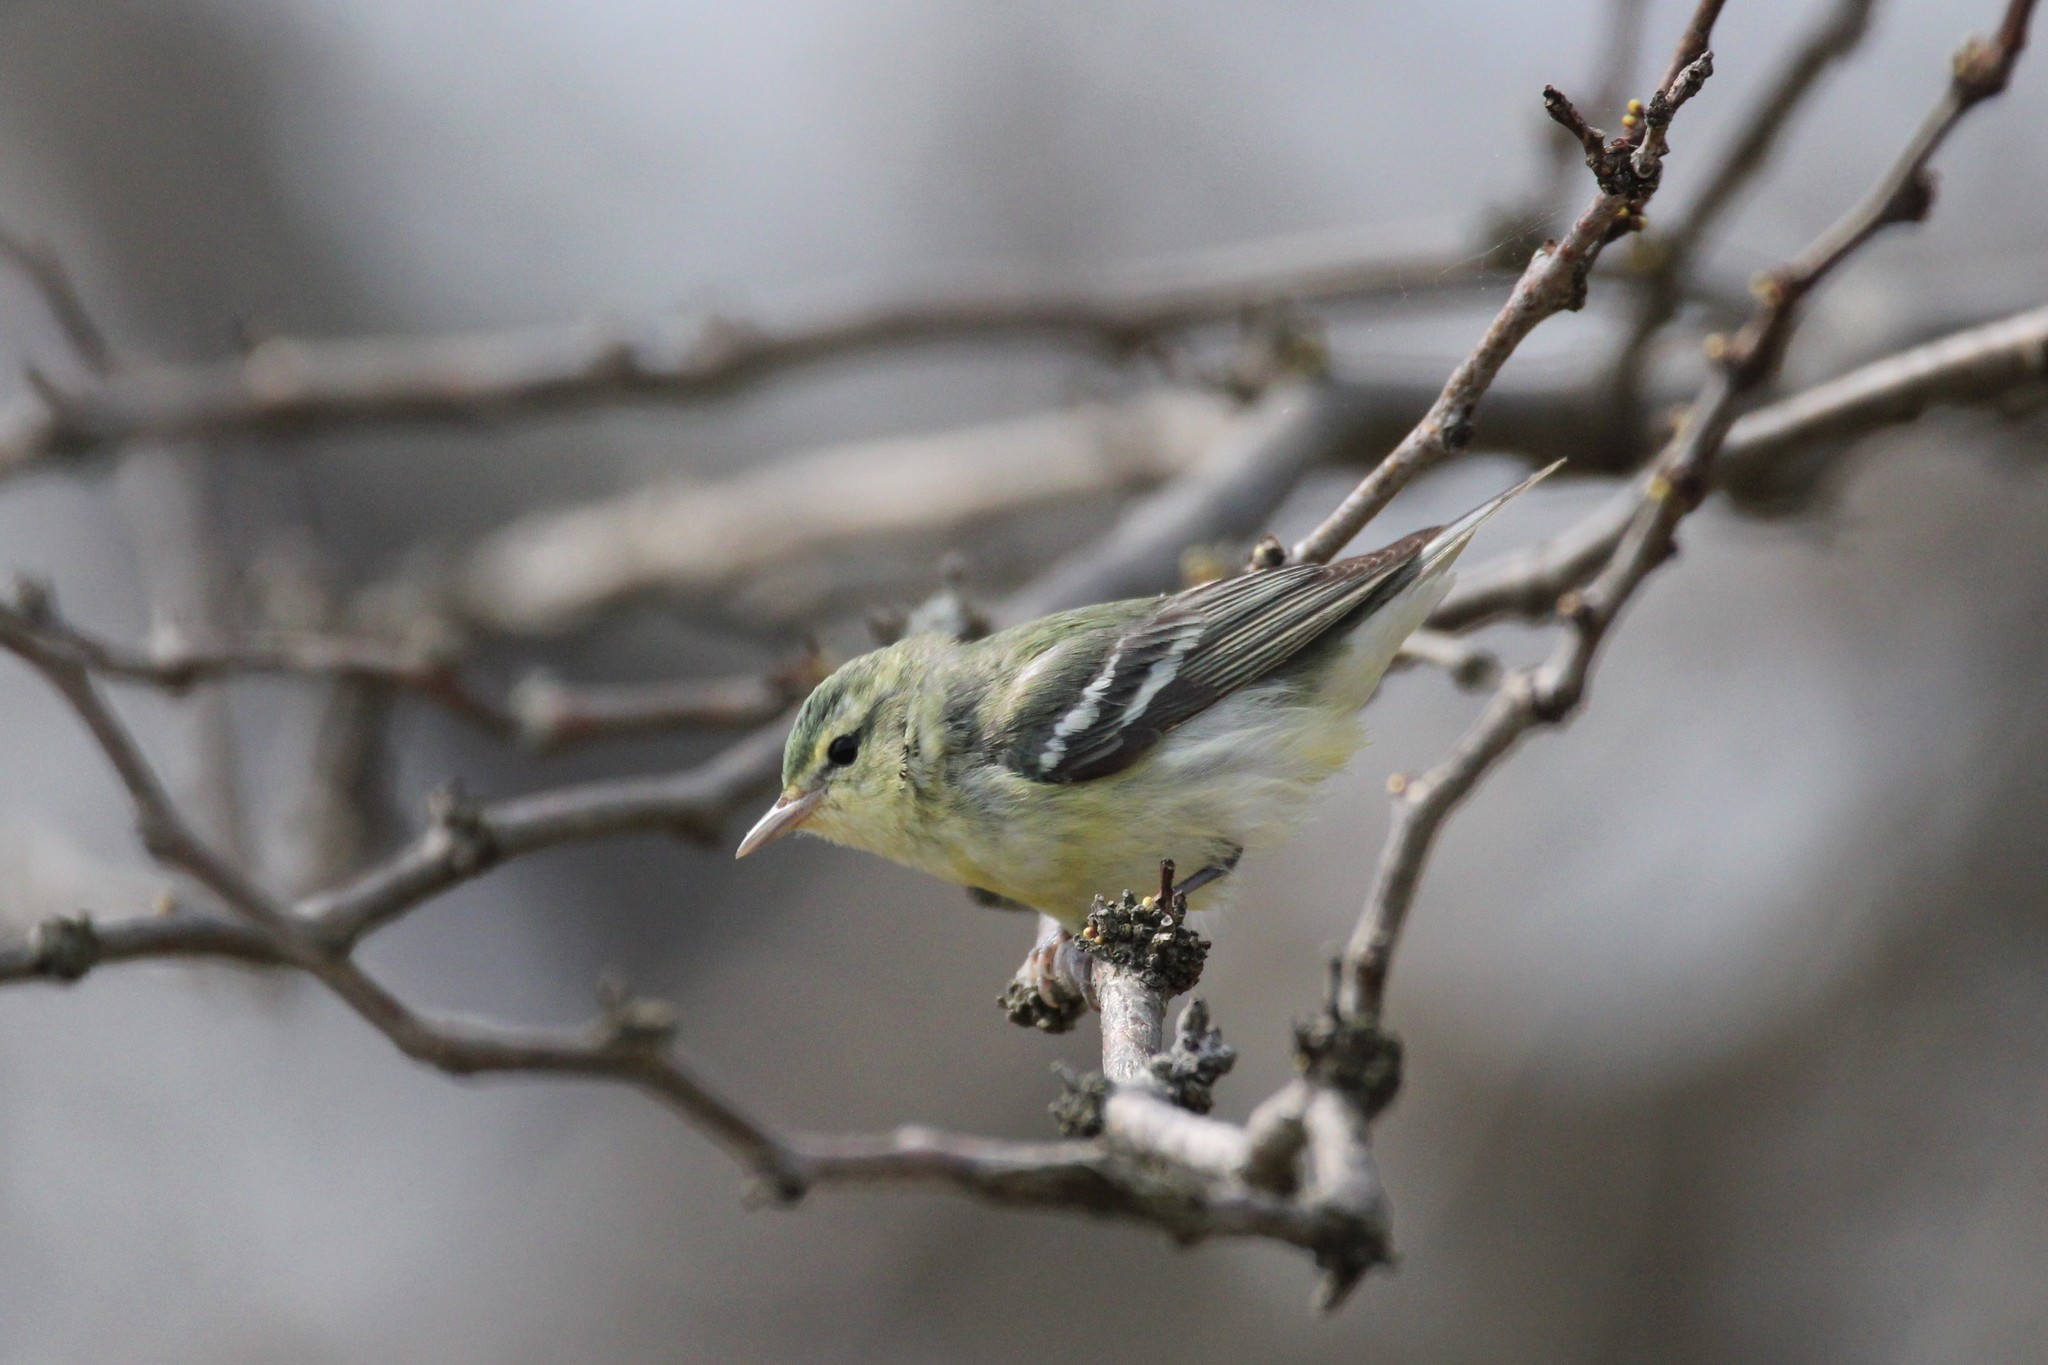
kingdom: Animalia
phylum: Chordata
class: Aves
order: Passeriformes
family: Parulidae
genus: Setophaga
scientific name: Setophaga cerulea
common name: Cerulean warbler
